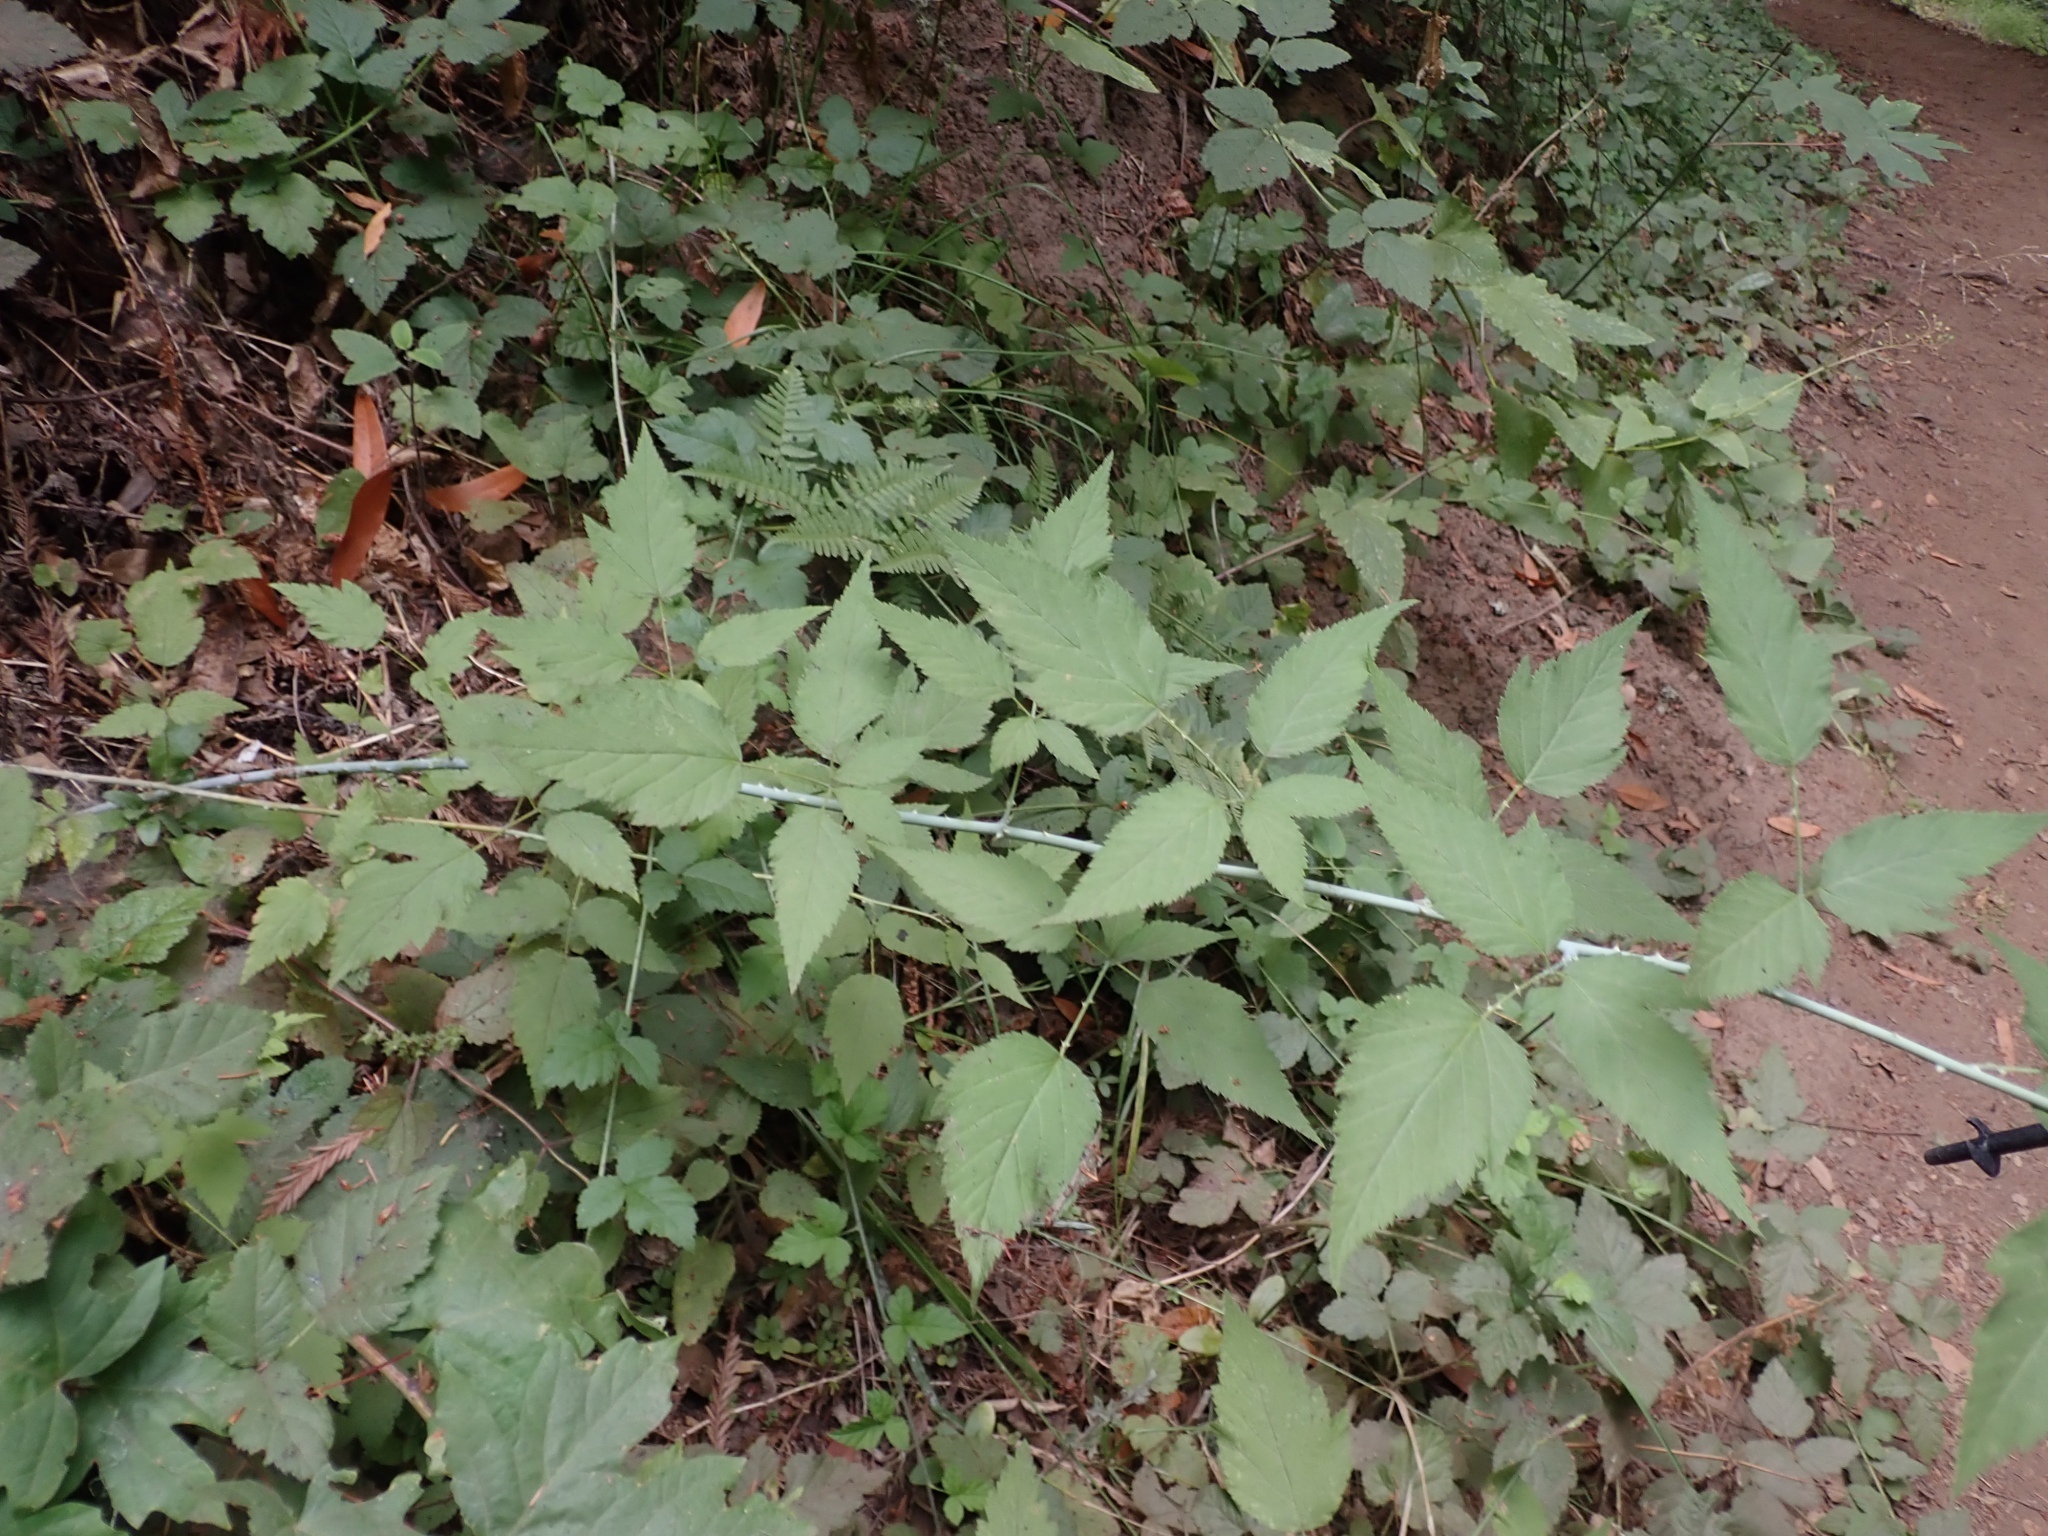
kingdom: Plantae
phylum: Tracheophyta
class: Magnoliopsida
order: Rosales
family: Rosaceae
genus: Rubus
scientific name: Rubus leucodermis
